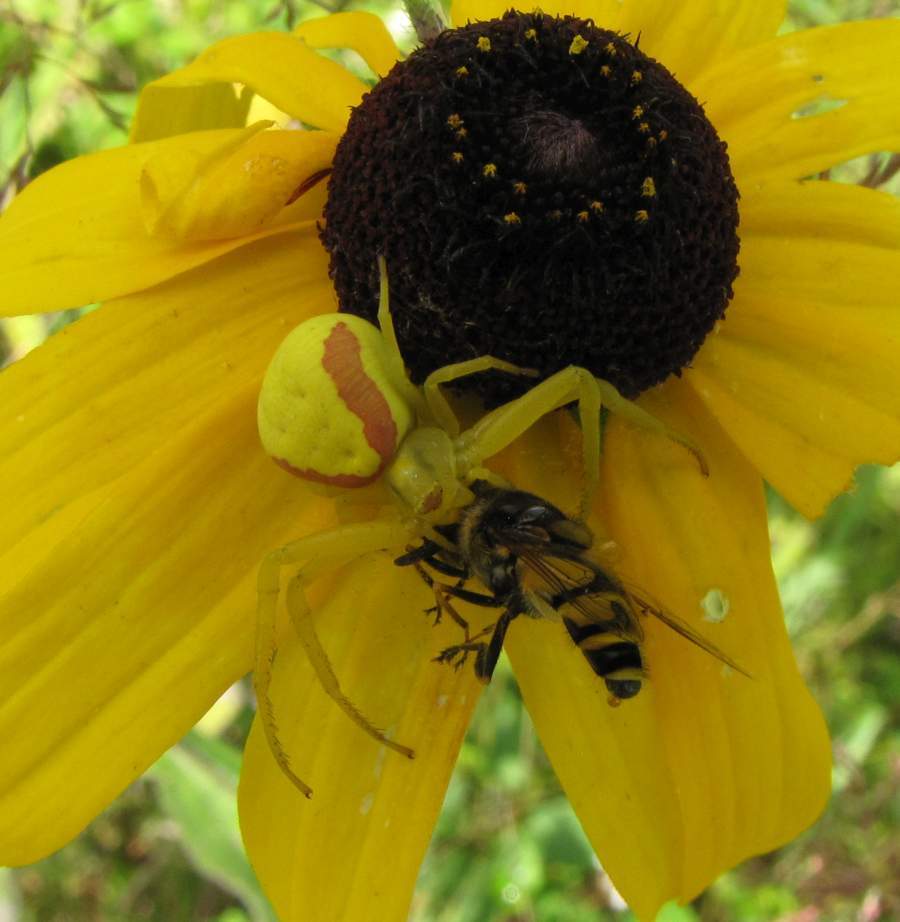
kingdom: Animalia
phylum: Arthropoda
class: Arachnida
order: Araneae
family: Thomisidae
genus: Misumena
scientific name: Misumena vatia
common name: Goldenrod crab spider
